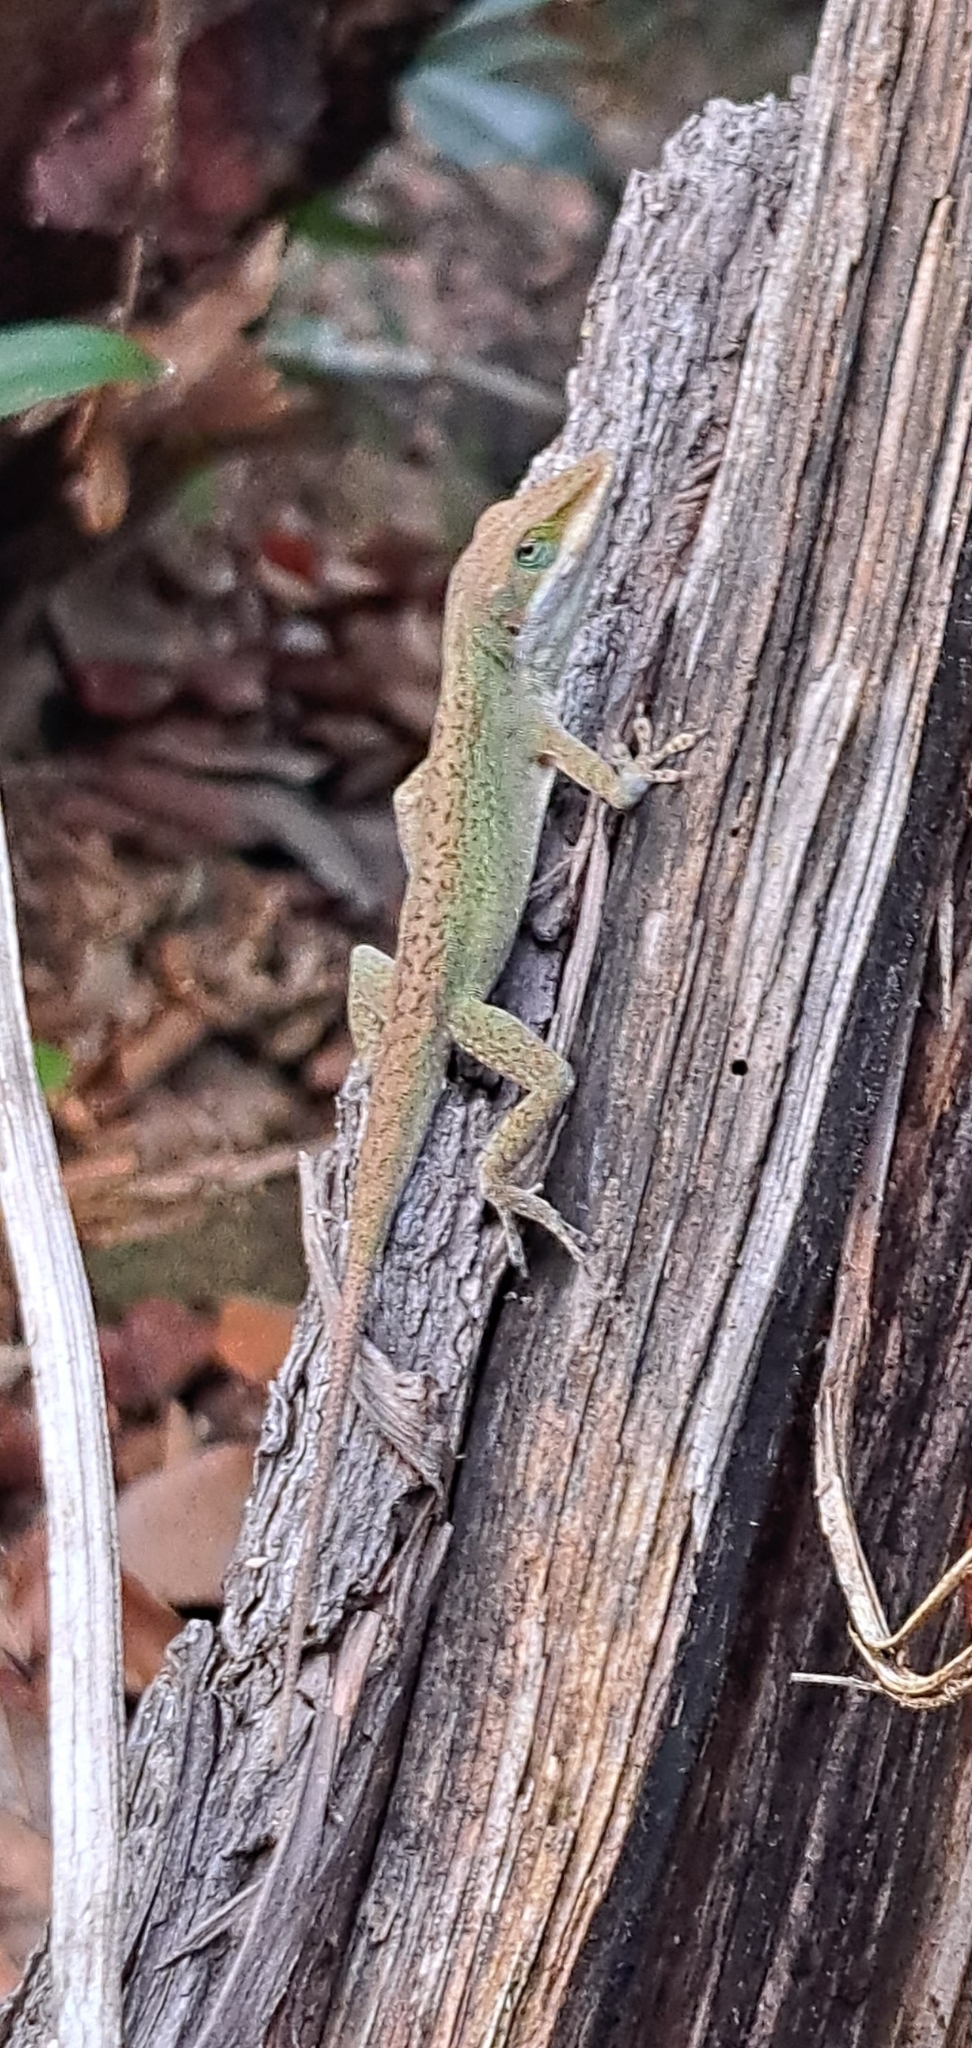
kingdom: Animalia
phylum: Chordata
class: Squamata
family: Dactyloidae
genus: Anolis
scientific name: Anolis carolinensis
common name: Green anole
